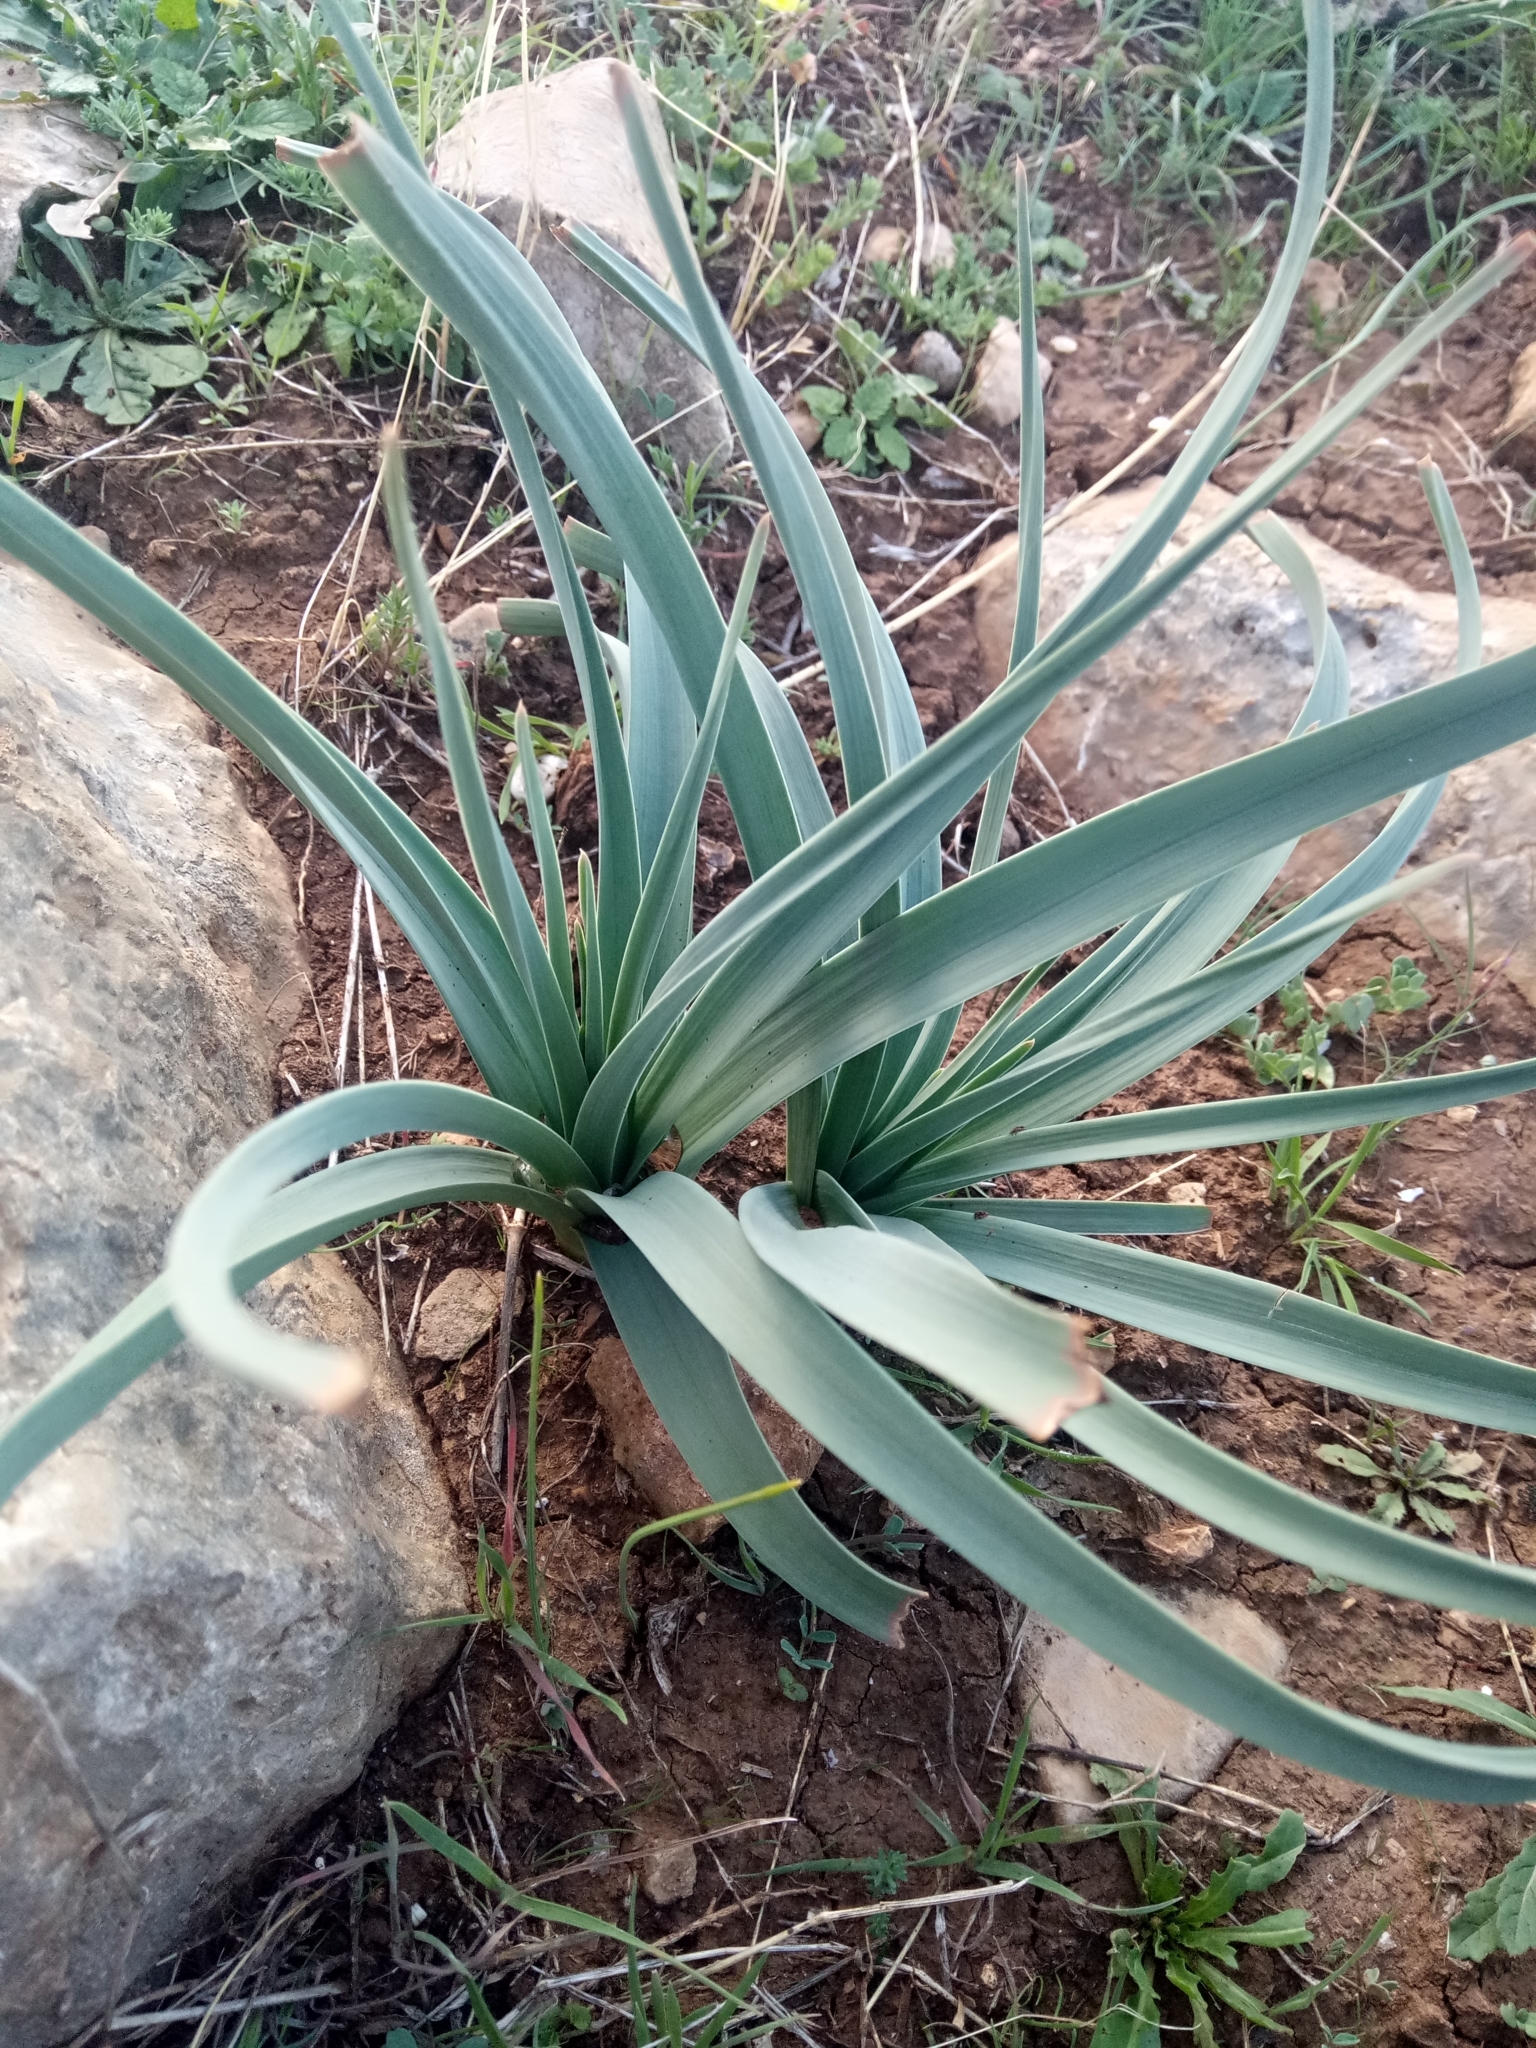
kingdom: Plantae
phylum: Tracheophyta
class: Liliopsida
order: Asparagales
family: Asphodelaceae
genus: Asphodelus
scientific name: Asphodelus ramosus
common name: Silverrod
